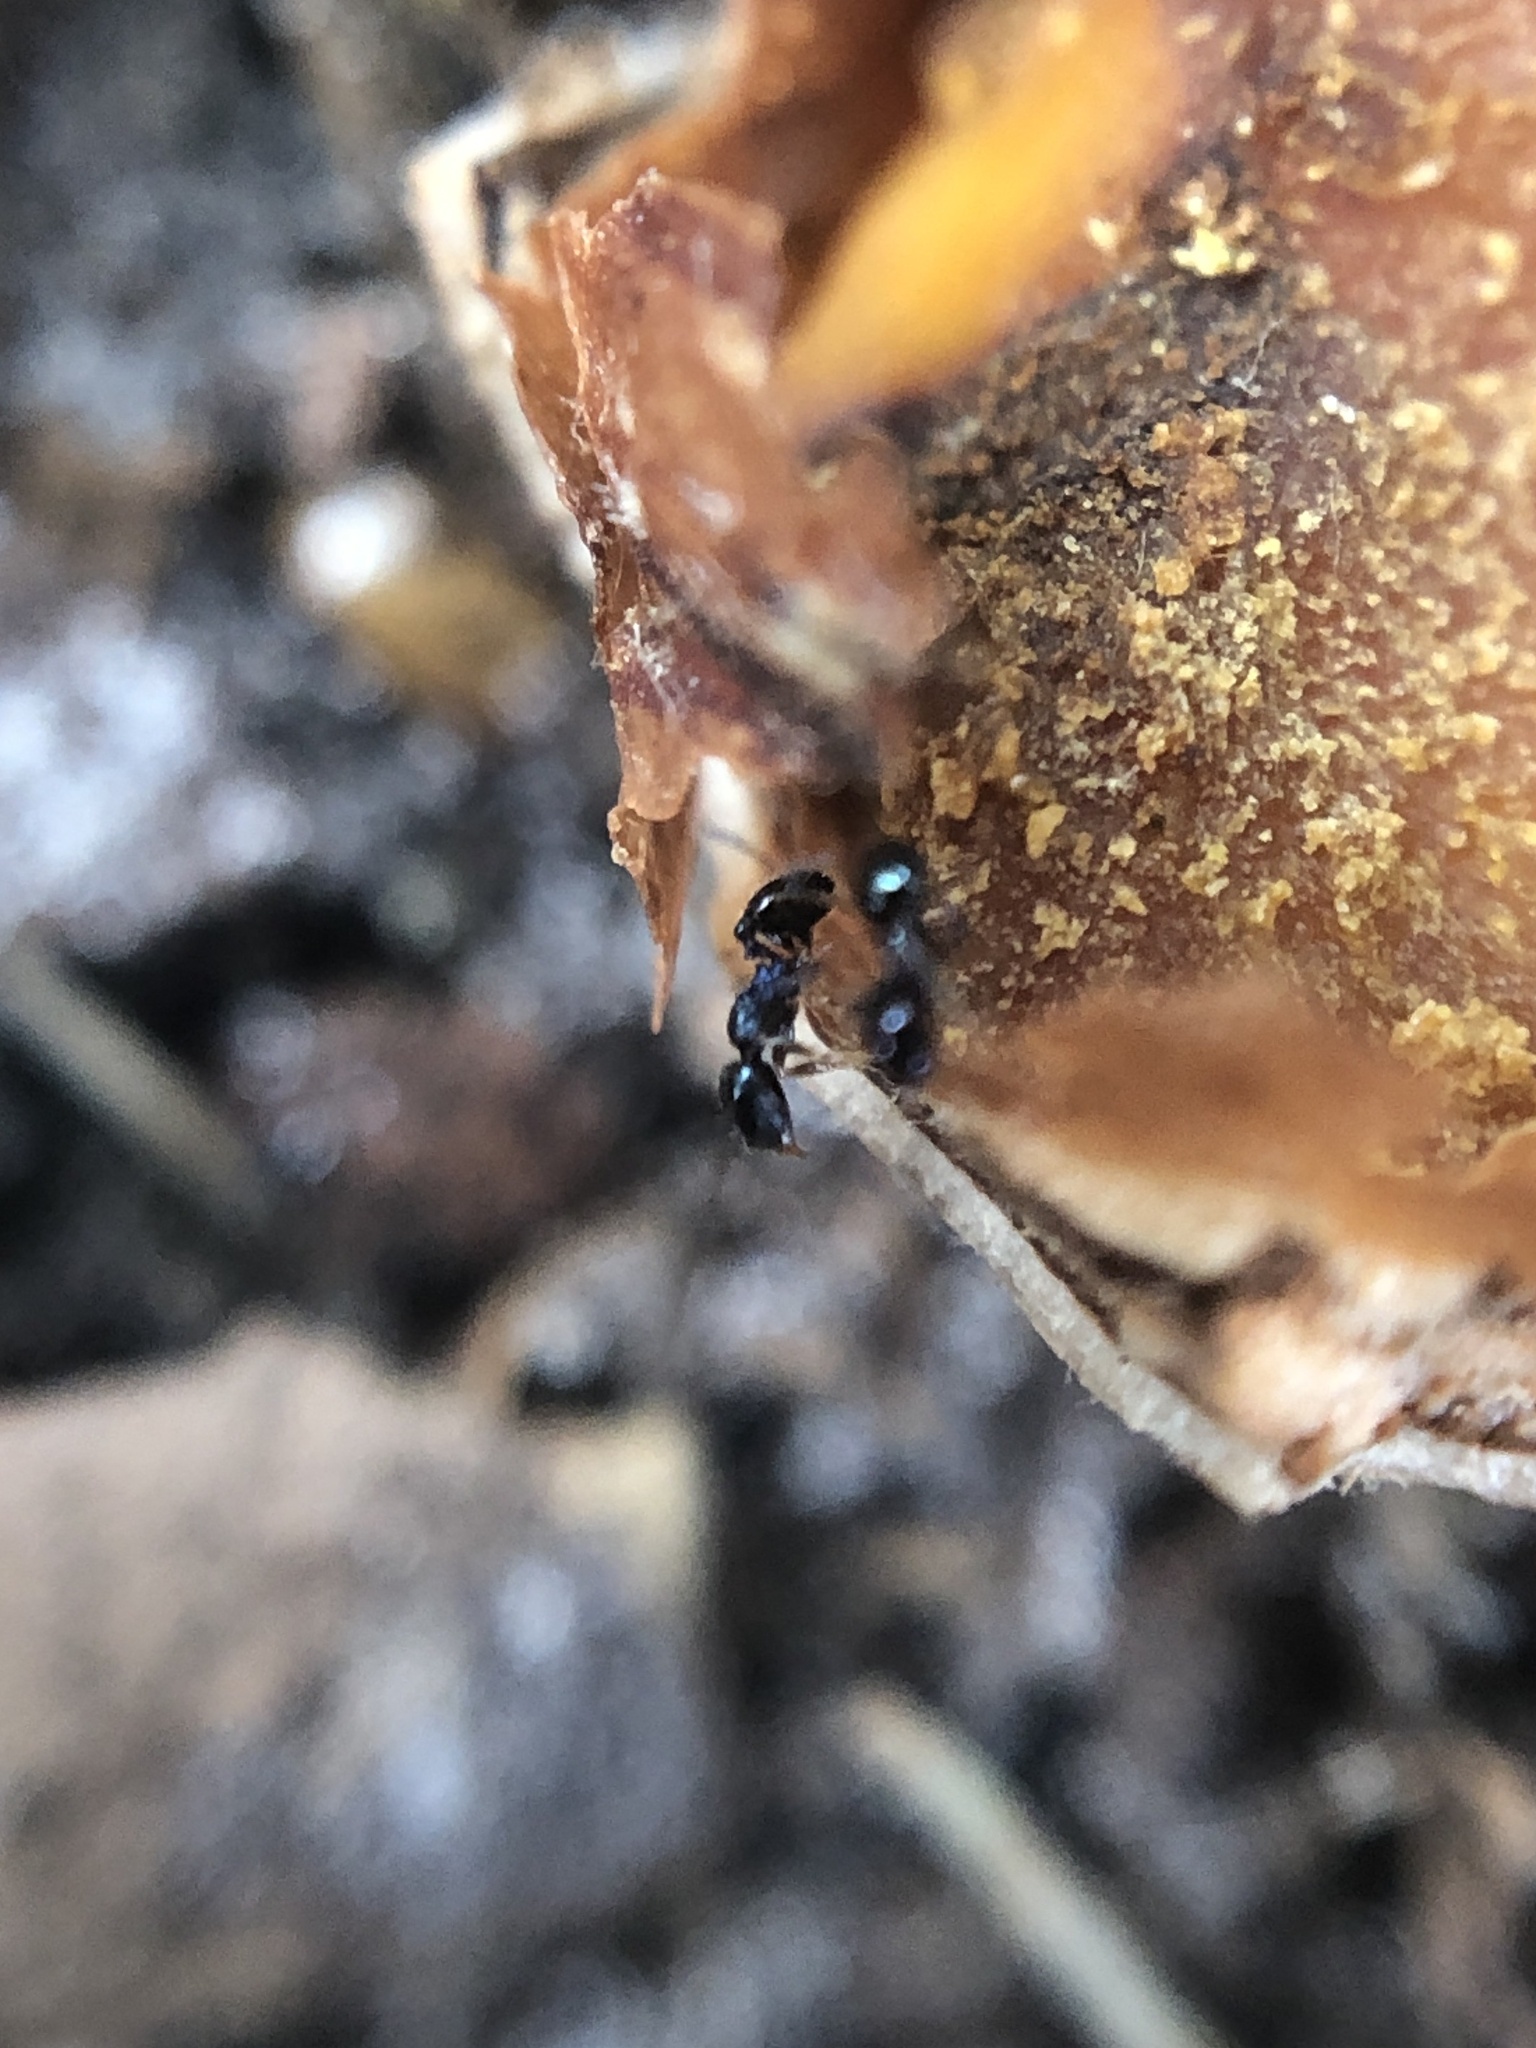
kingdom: Animalia
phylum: Arthropoda
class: Insecta
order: Hymenoptera
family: Formicidae
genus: Pheidole
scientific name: Pheidole metallescens
